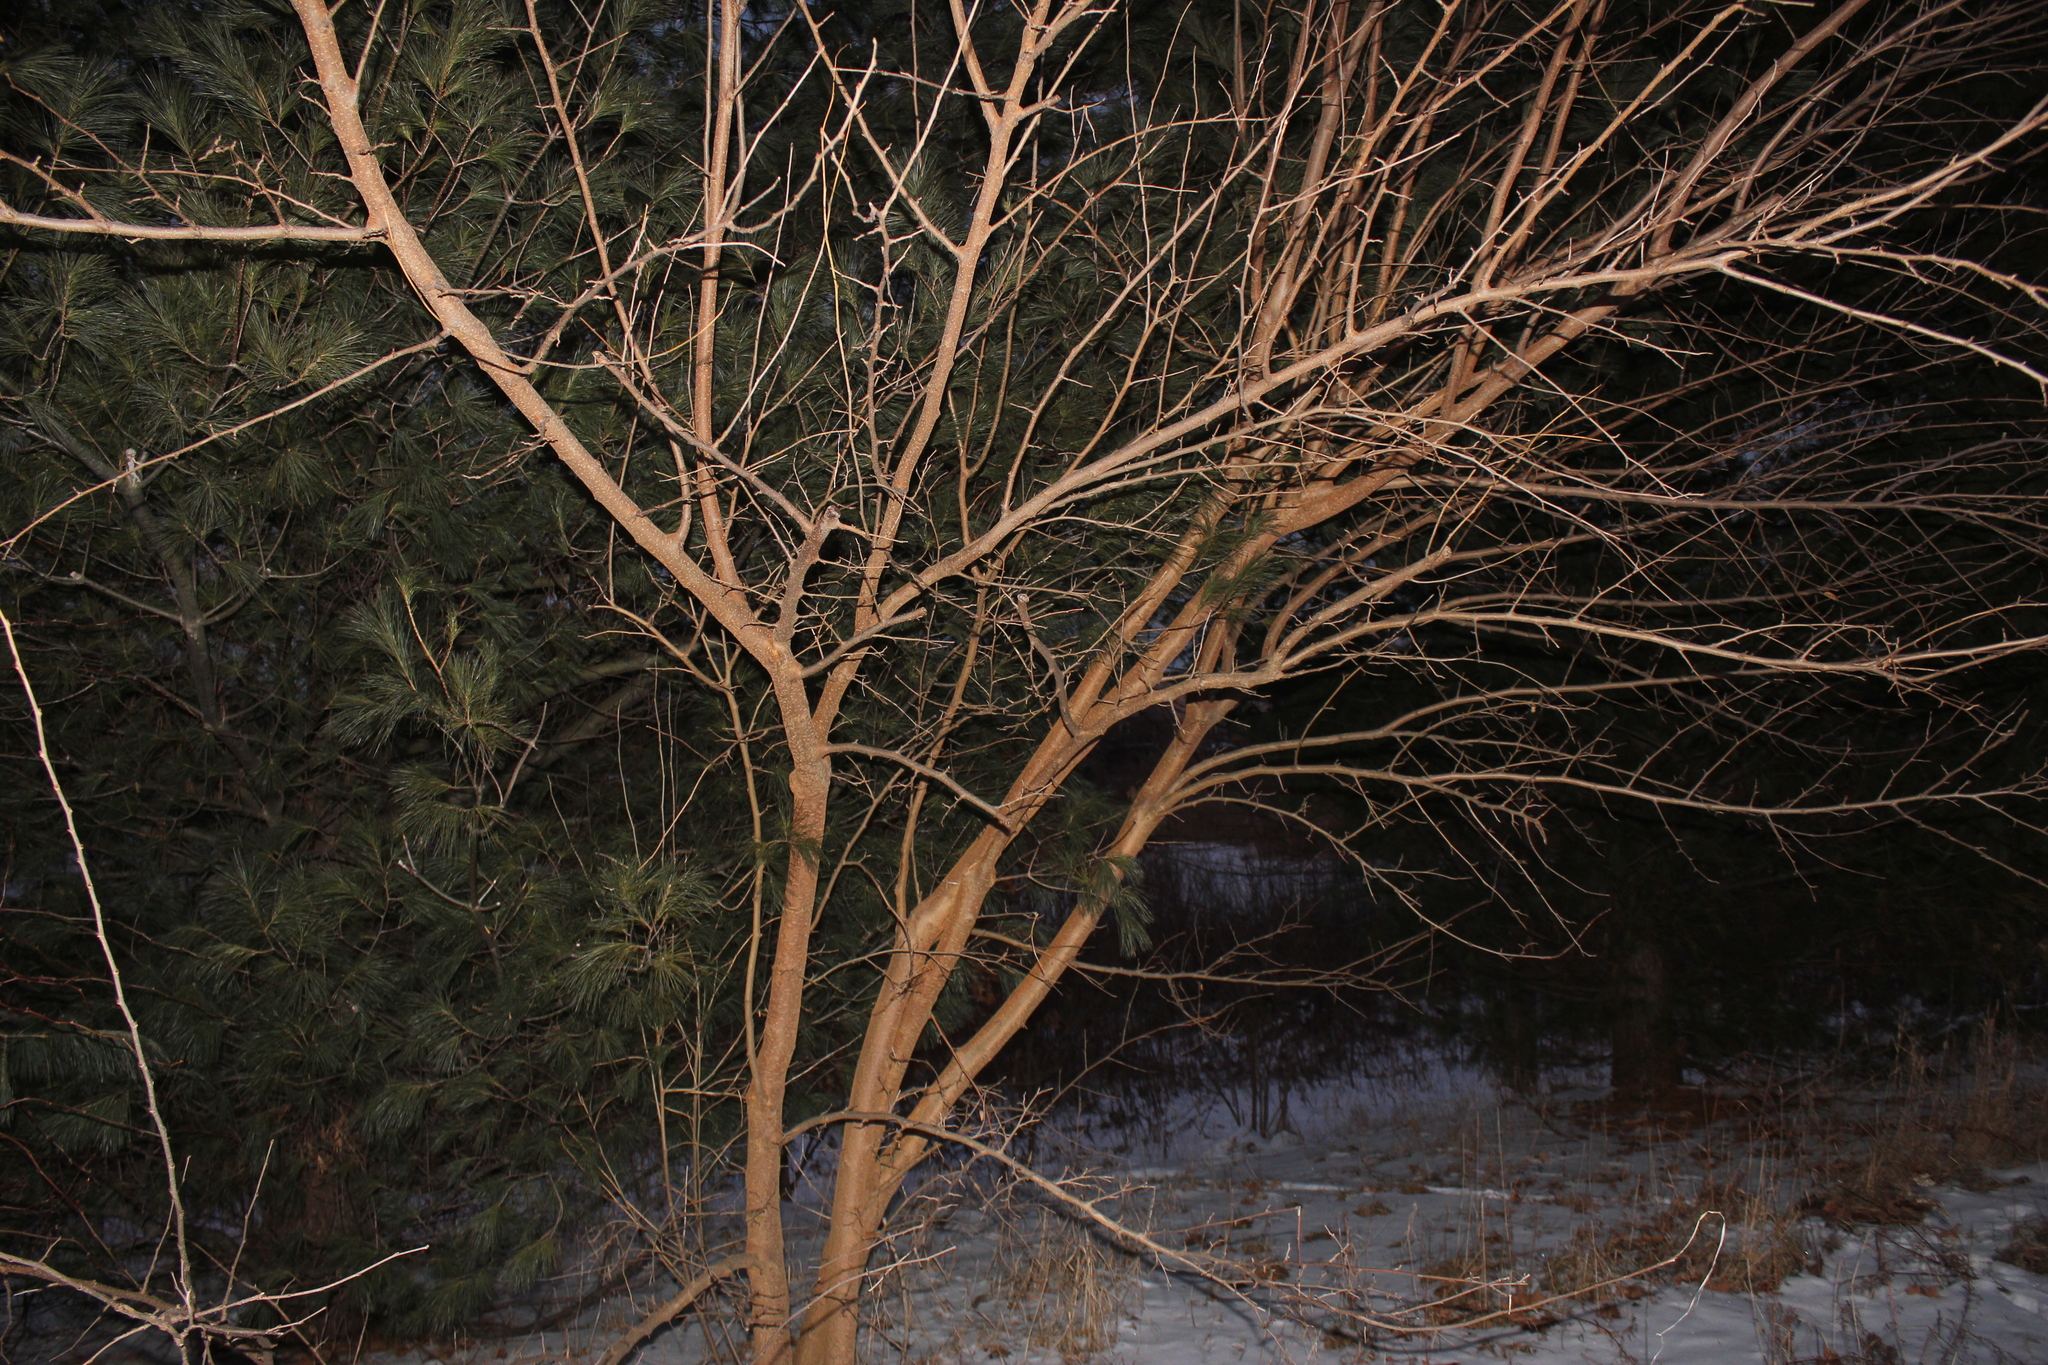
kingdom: Plantae
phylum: Tracheophyta
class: Magnoliopsida
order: Rosales
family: Moraceae
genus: Morus
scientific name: Morus alba
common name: White mulberry
